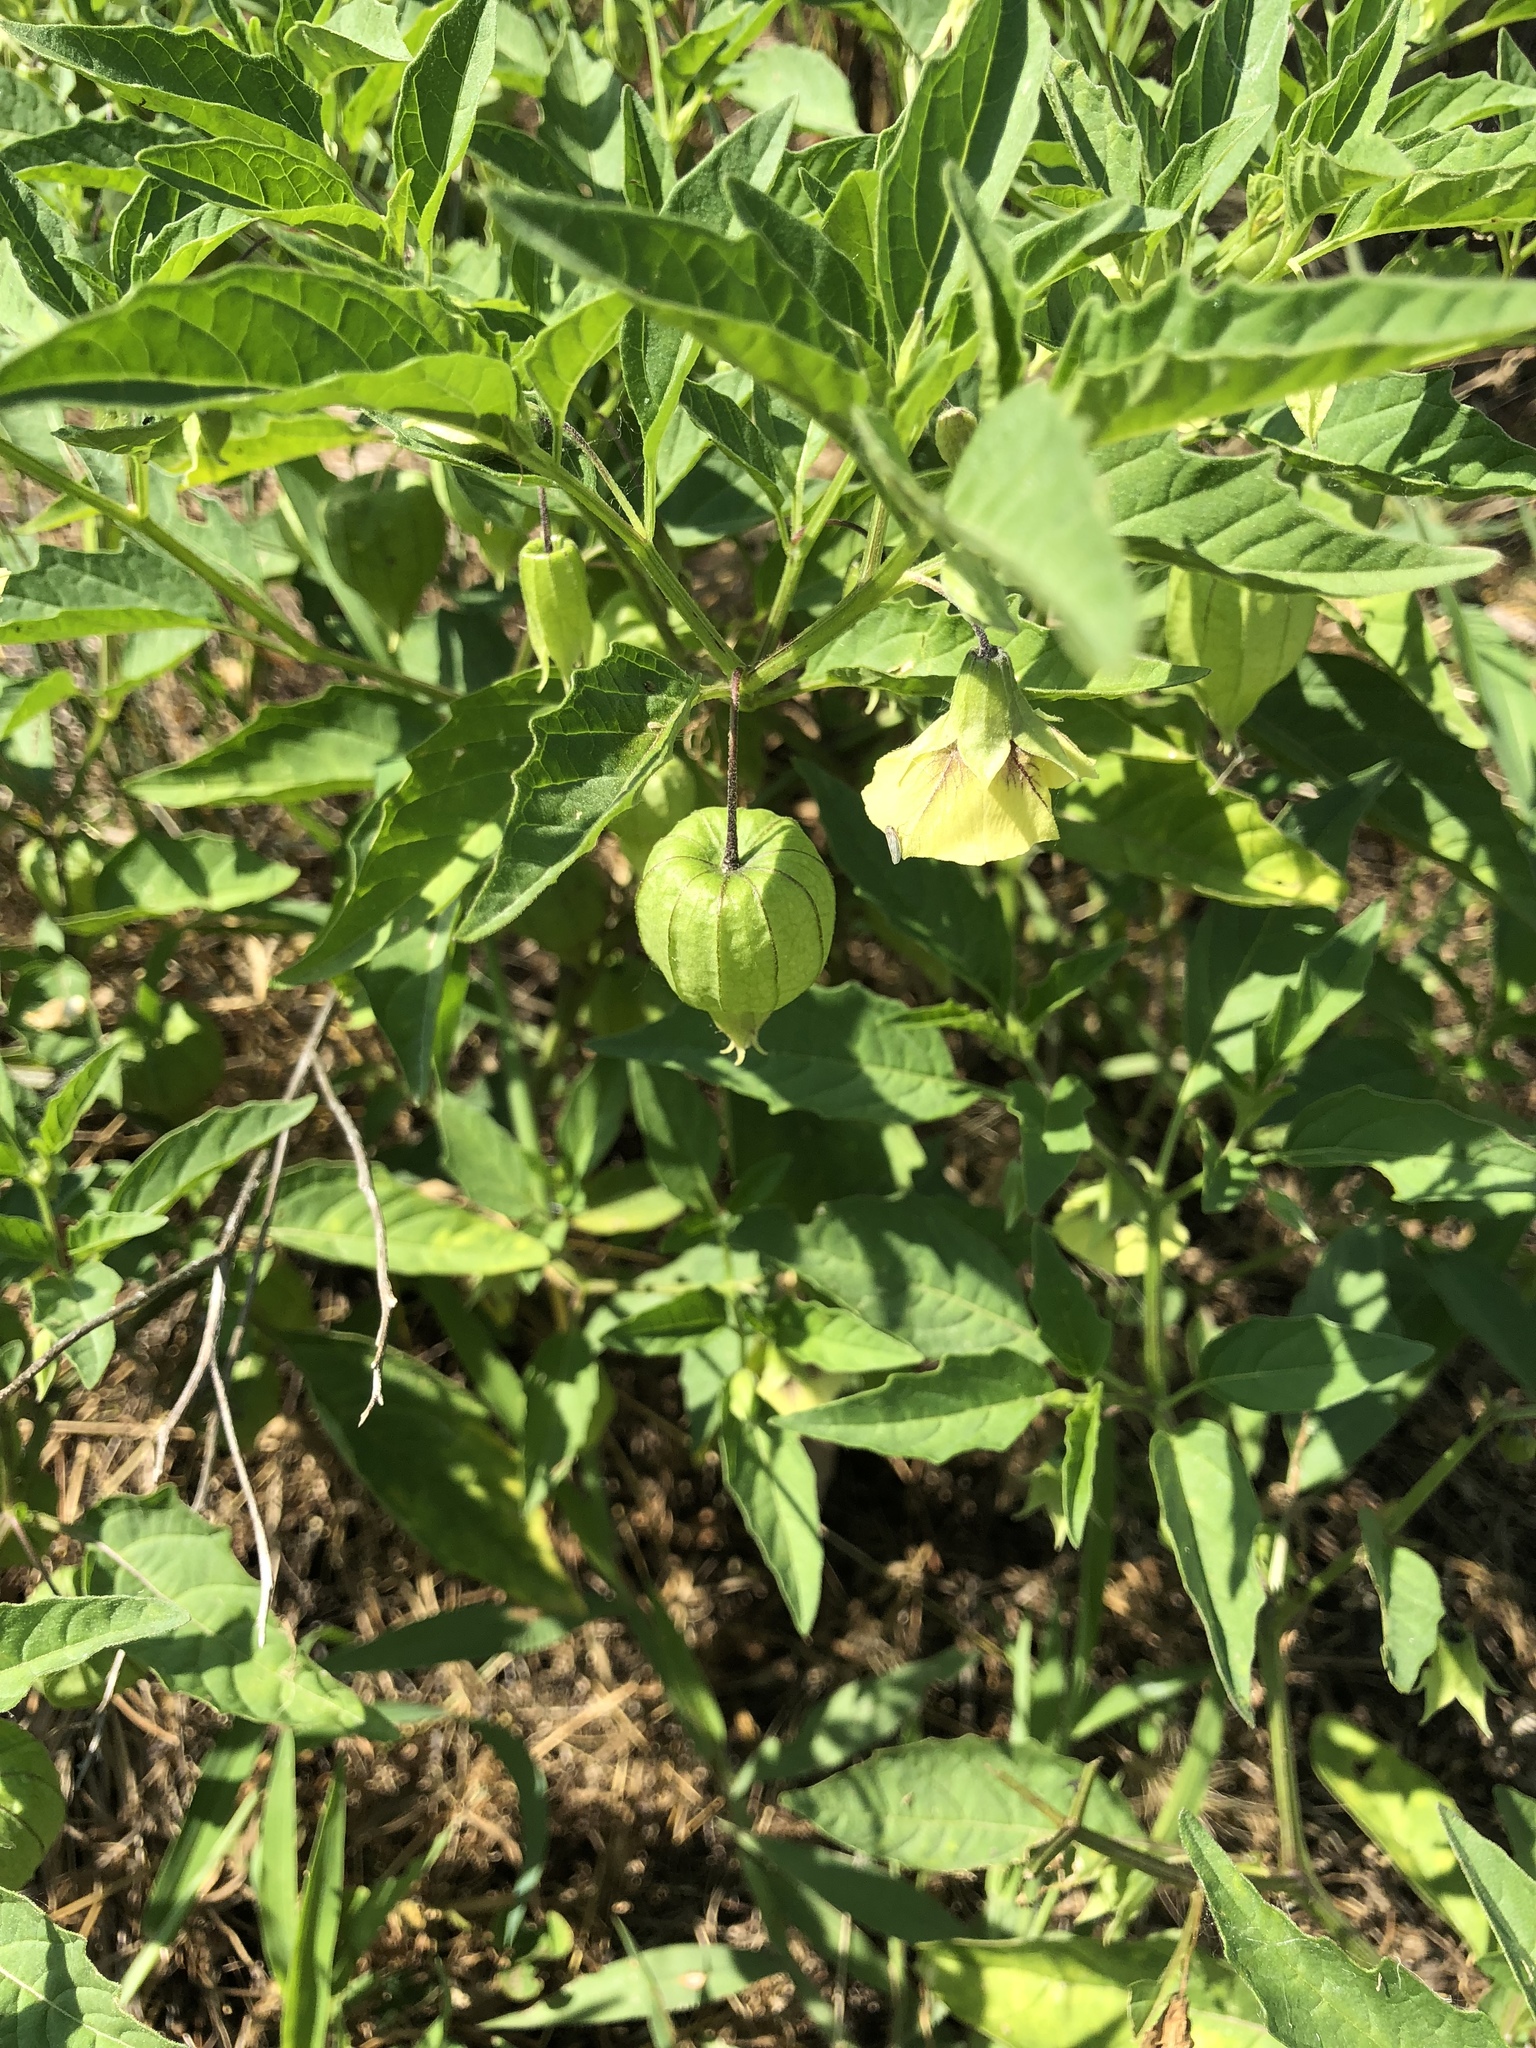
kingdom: Plantae
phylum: Tracheophyta
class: Magnoliopsida
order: Solanales
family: Solanaceae
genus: Physalis
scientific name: Physalis longifolia
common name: Common ground-cherry
